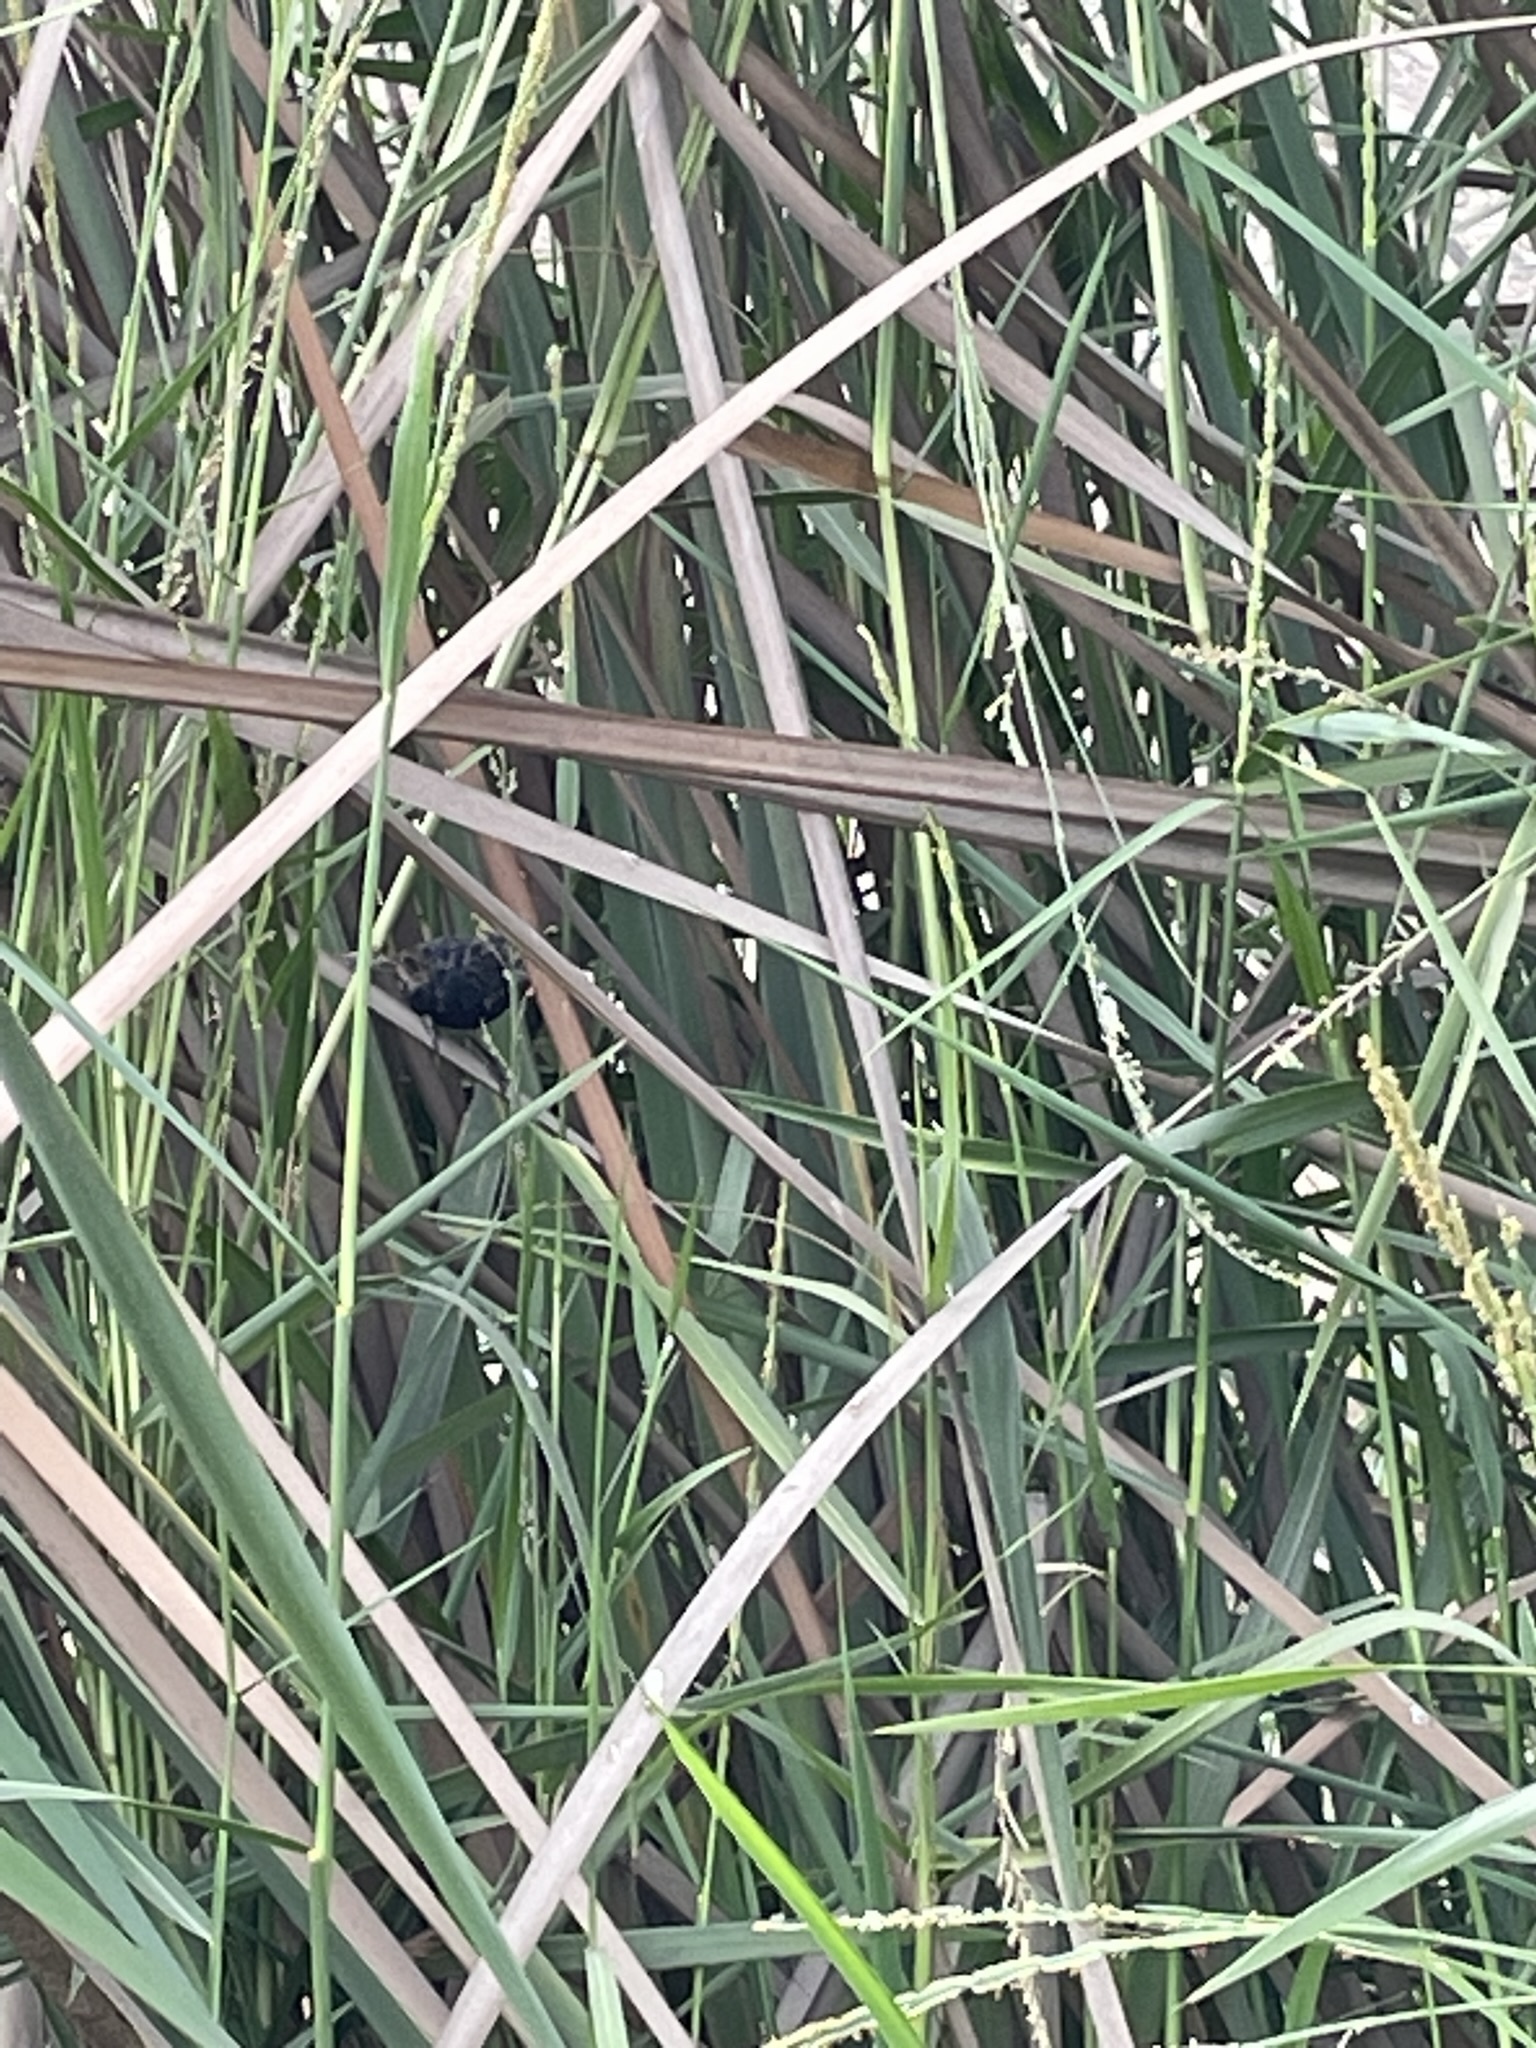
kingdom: Animalia
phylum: Chordata
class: Aves
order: Passeriformes
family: Thraupidae
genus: Volatinia
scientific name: Volatinia jacarina
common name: Blue-black grassquit
